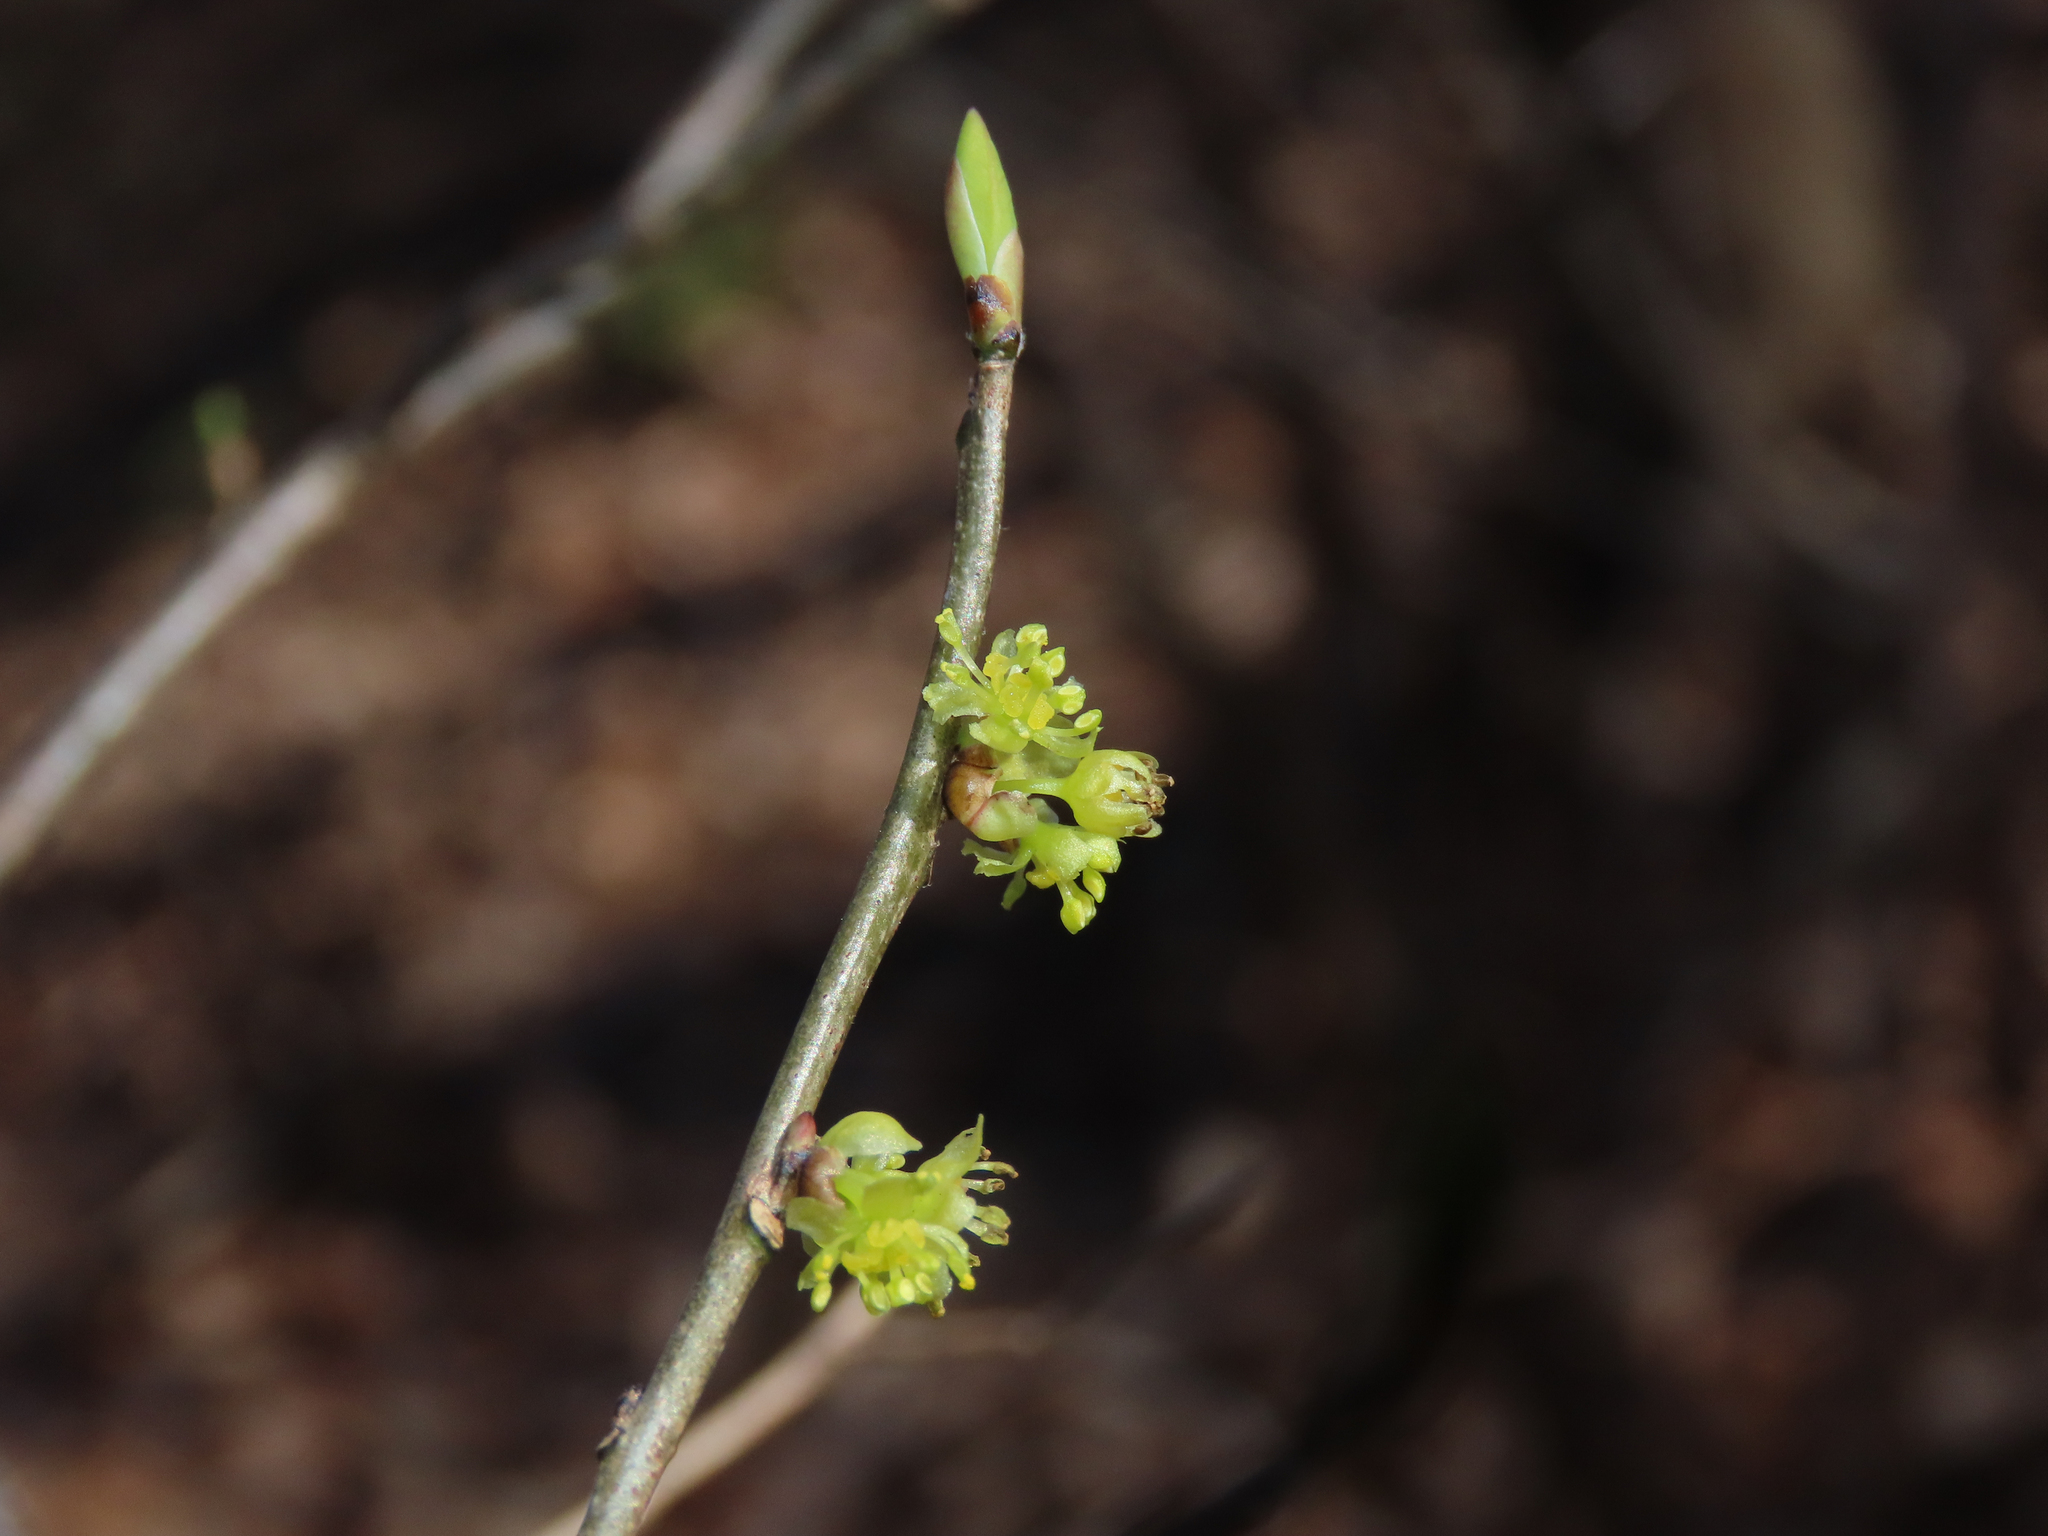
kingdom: Plantae
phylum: Tracheophyta
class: Magnoliopsida
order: Laurales
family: Lauraceae
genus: Lindera
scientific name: Lindera benzoin
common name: Spicebush
